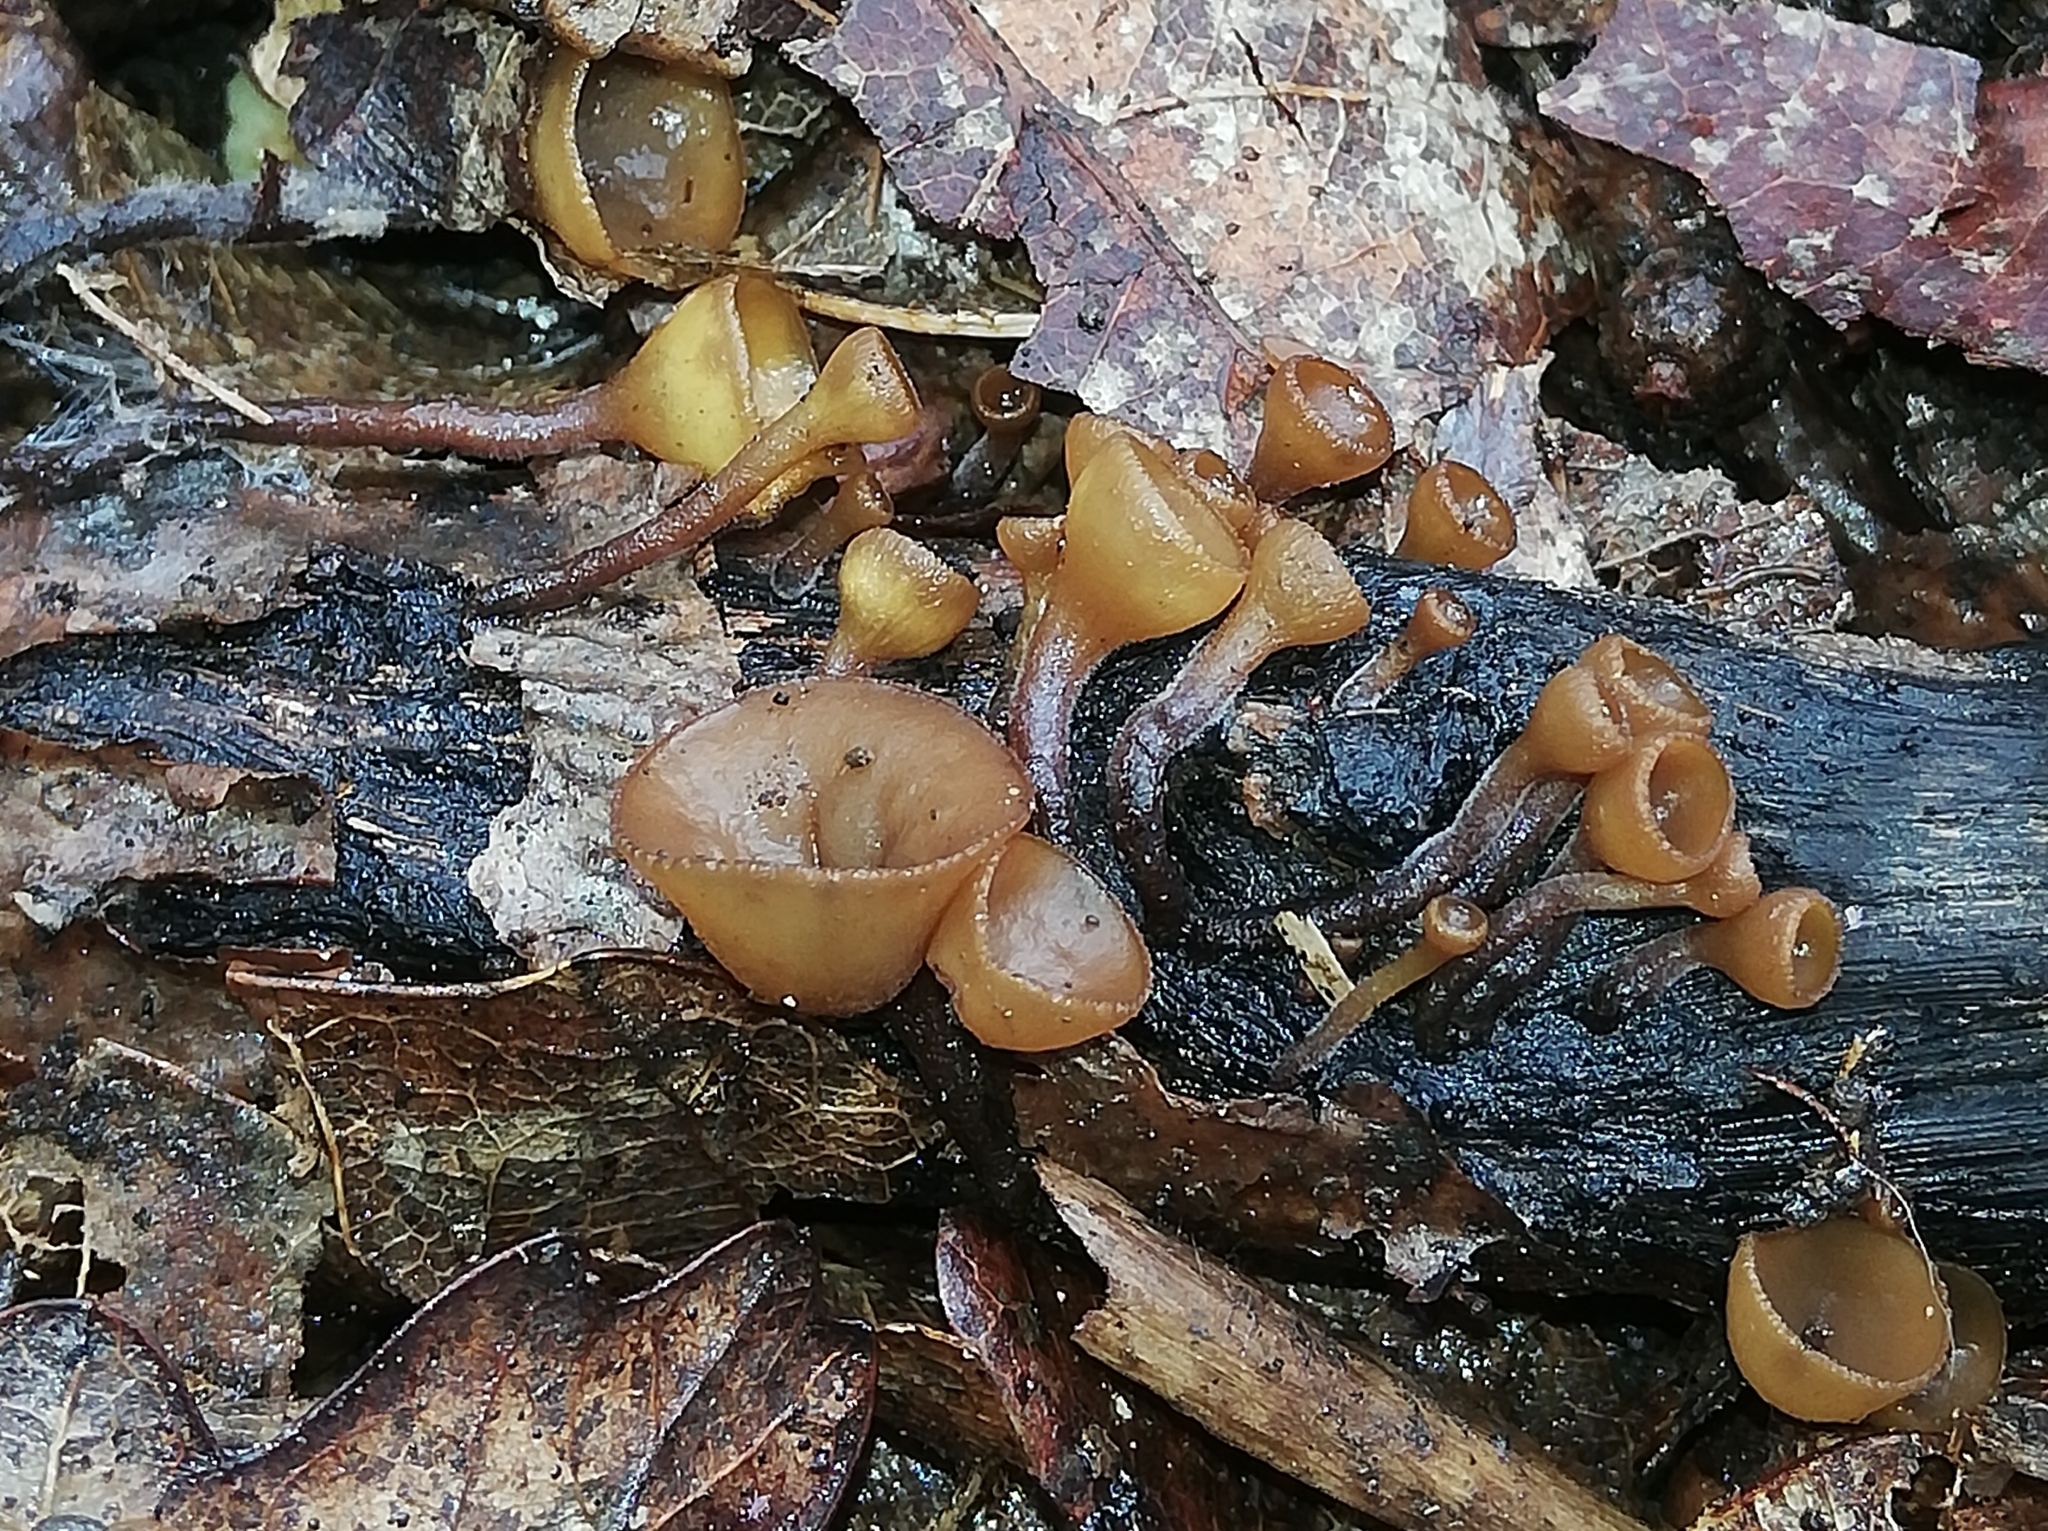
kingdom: Fungi
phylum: Ascomycota
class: Leotiomycetes
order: Helotiales
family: Rutstroemiaceae
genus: Rutstroemia
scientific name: Rutstroemia firma
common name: Brown cup
